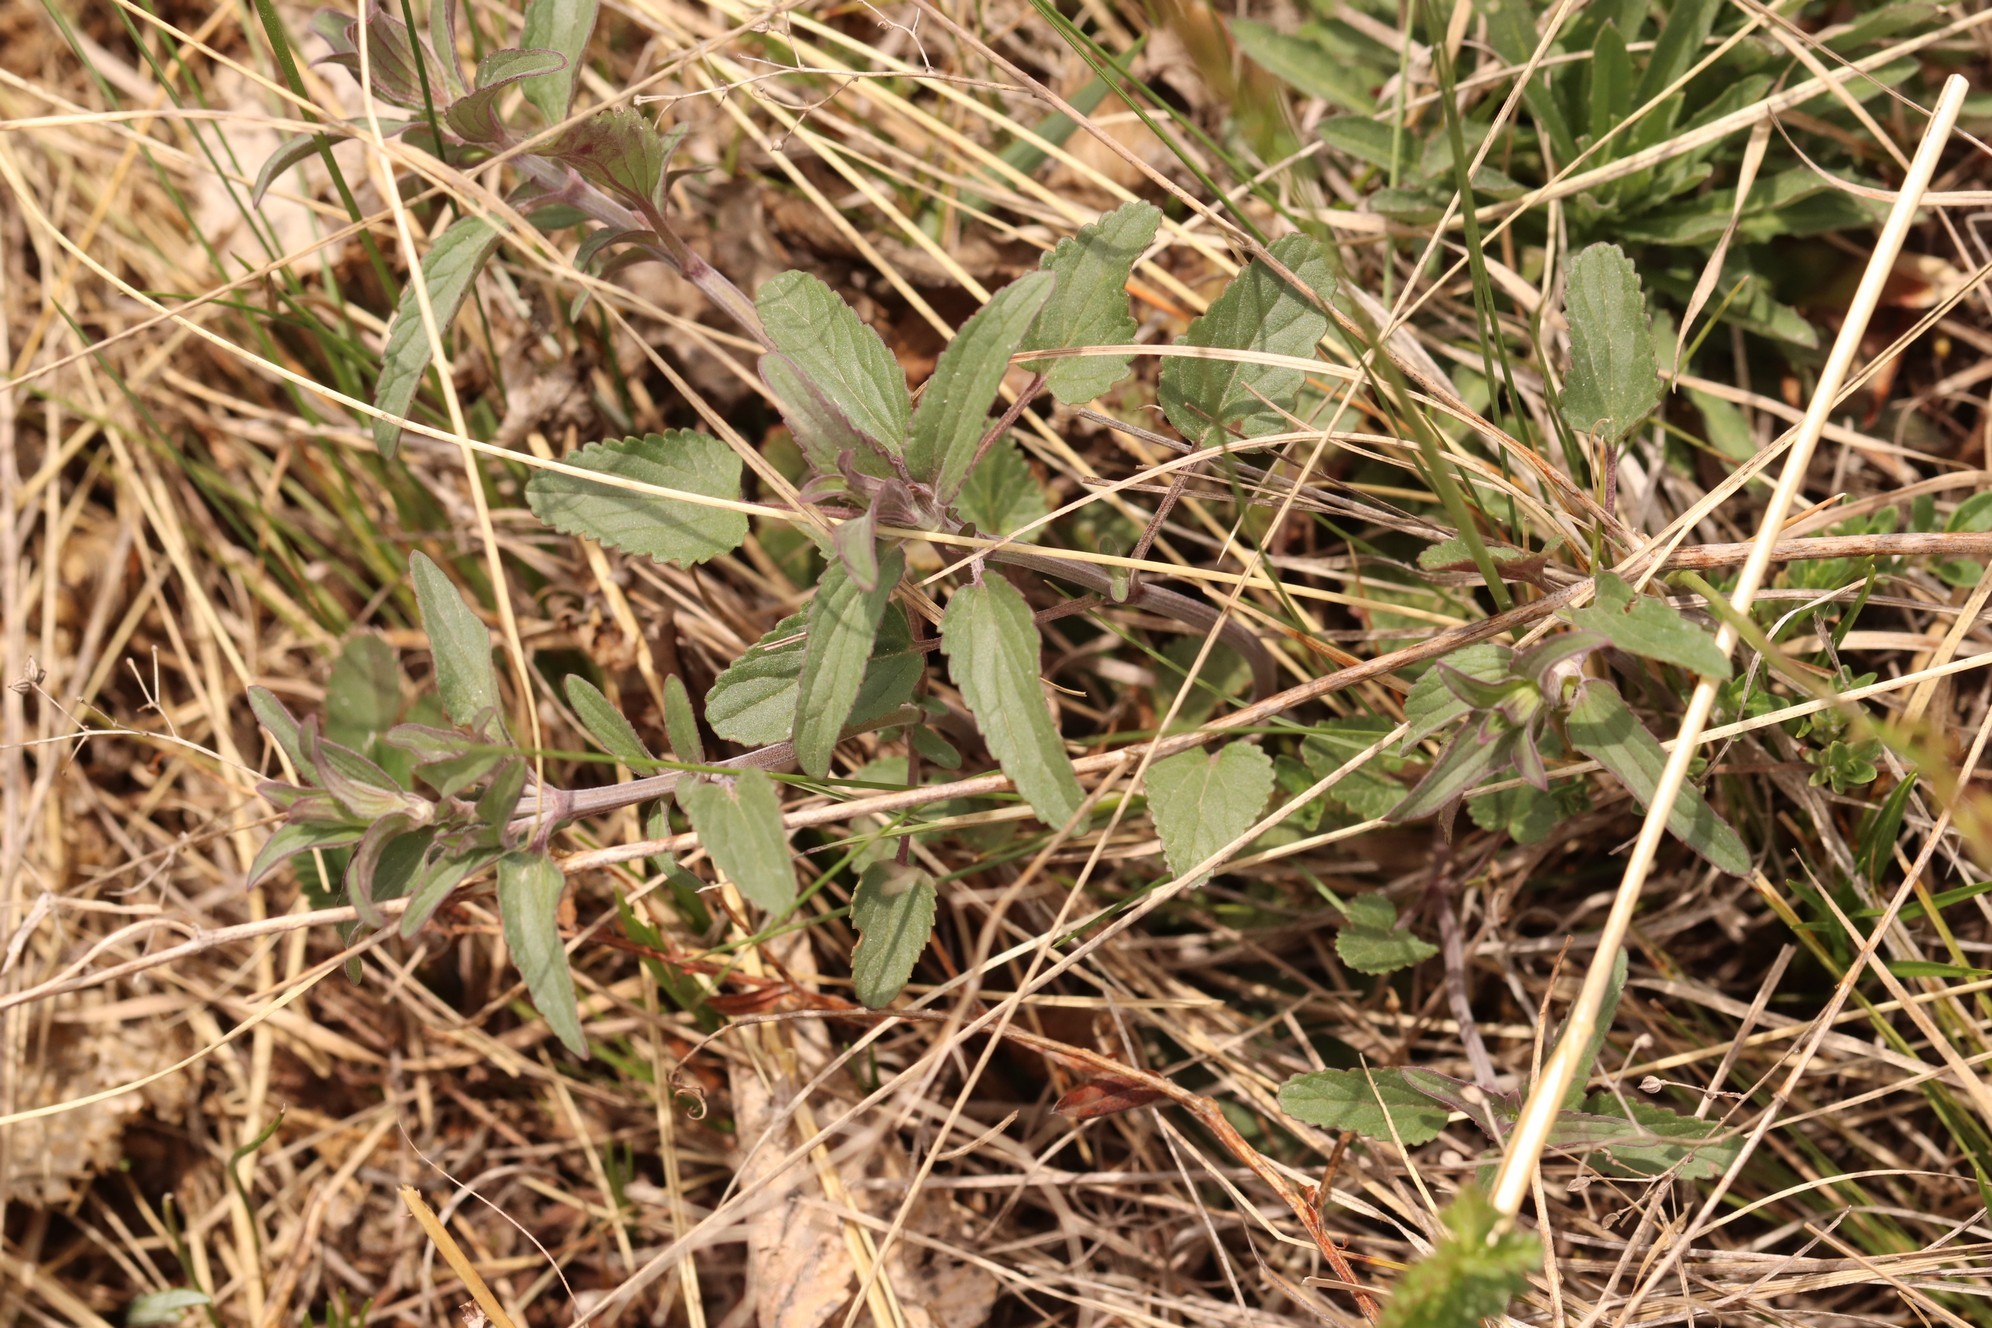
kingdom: Plantae
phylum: Tracheophyta
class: Magnoliopsida
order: Lamiales
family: Lamiaceae
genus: Dracocephalum
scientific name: Dracocephalum nutans
